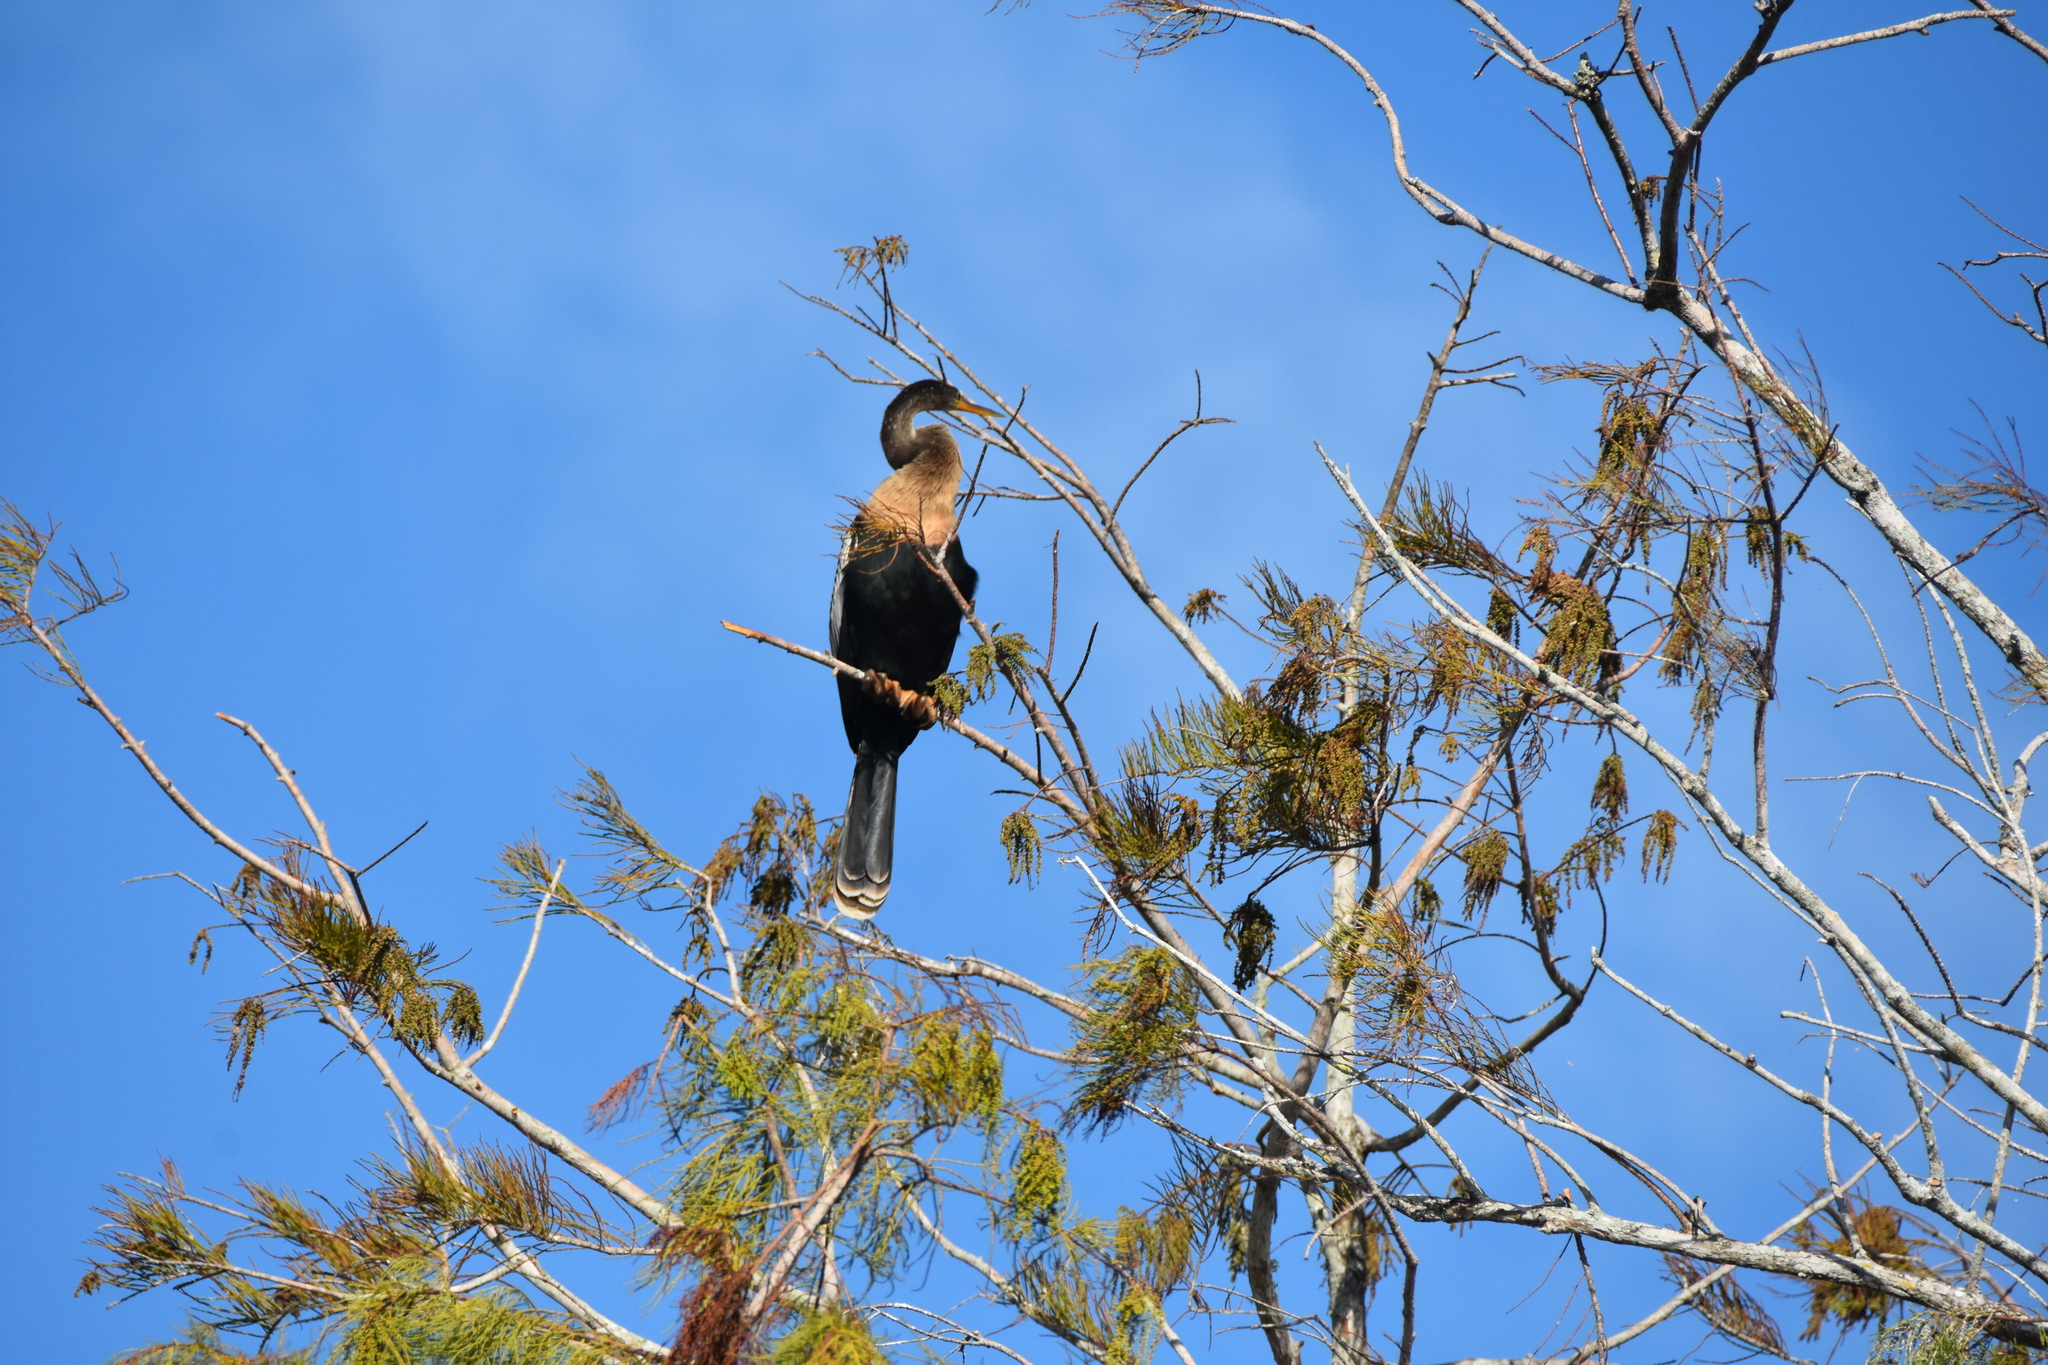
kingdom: Animalia
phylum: Chordata
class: Aves
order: Suliformes
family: Anhingidae
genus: Anhinga
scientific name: Anhinga anhinga
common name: Anhinga
